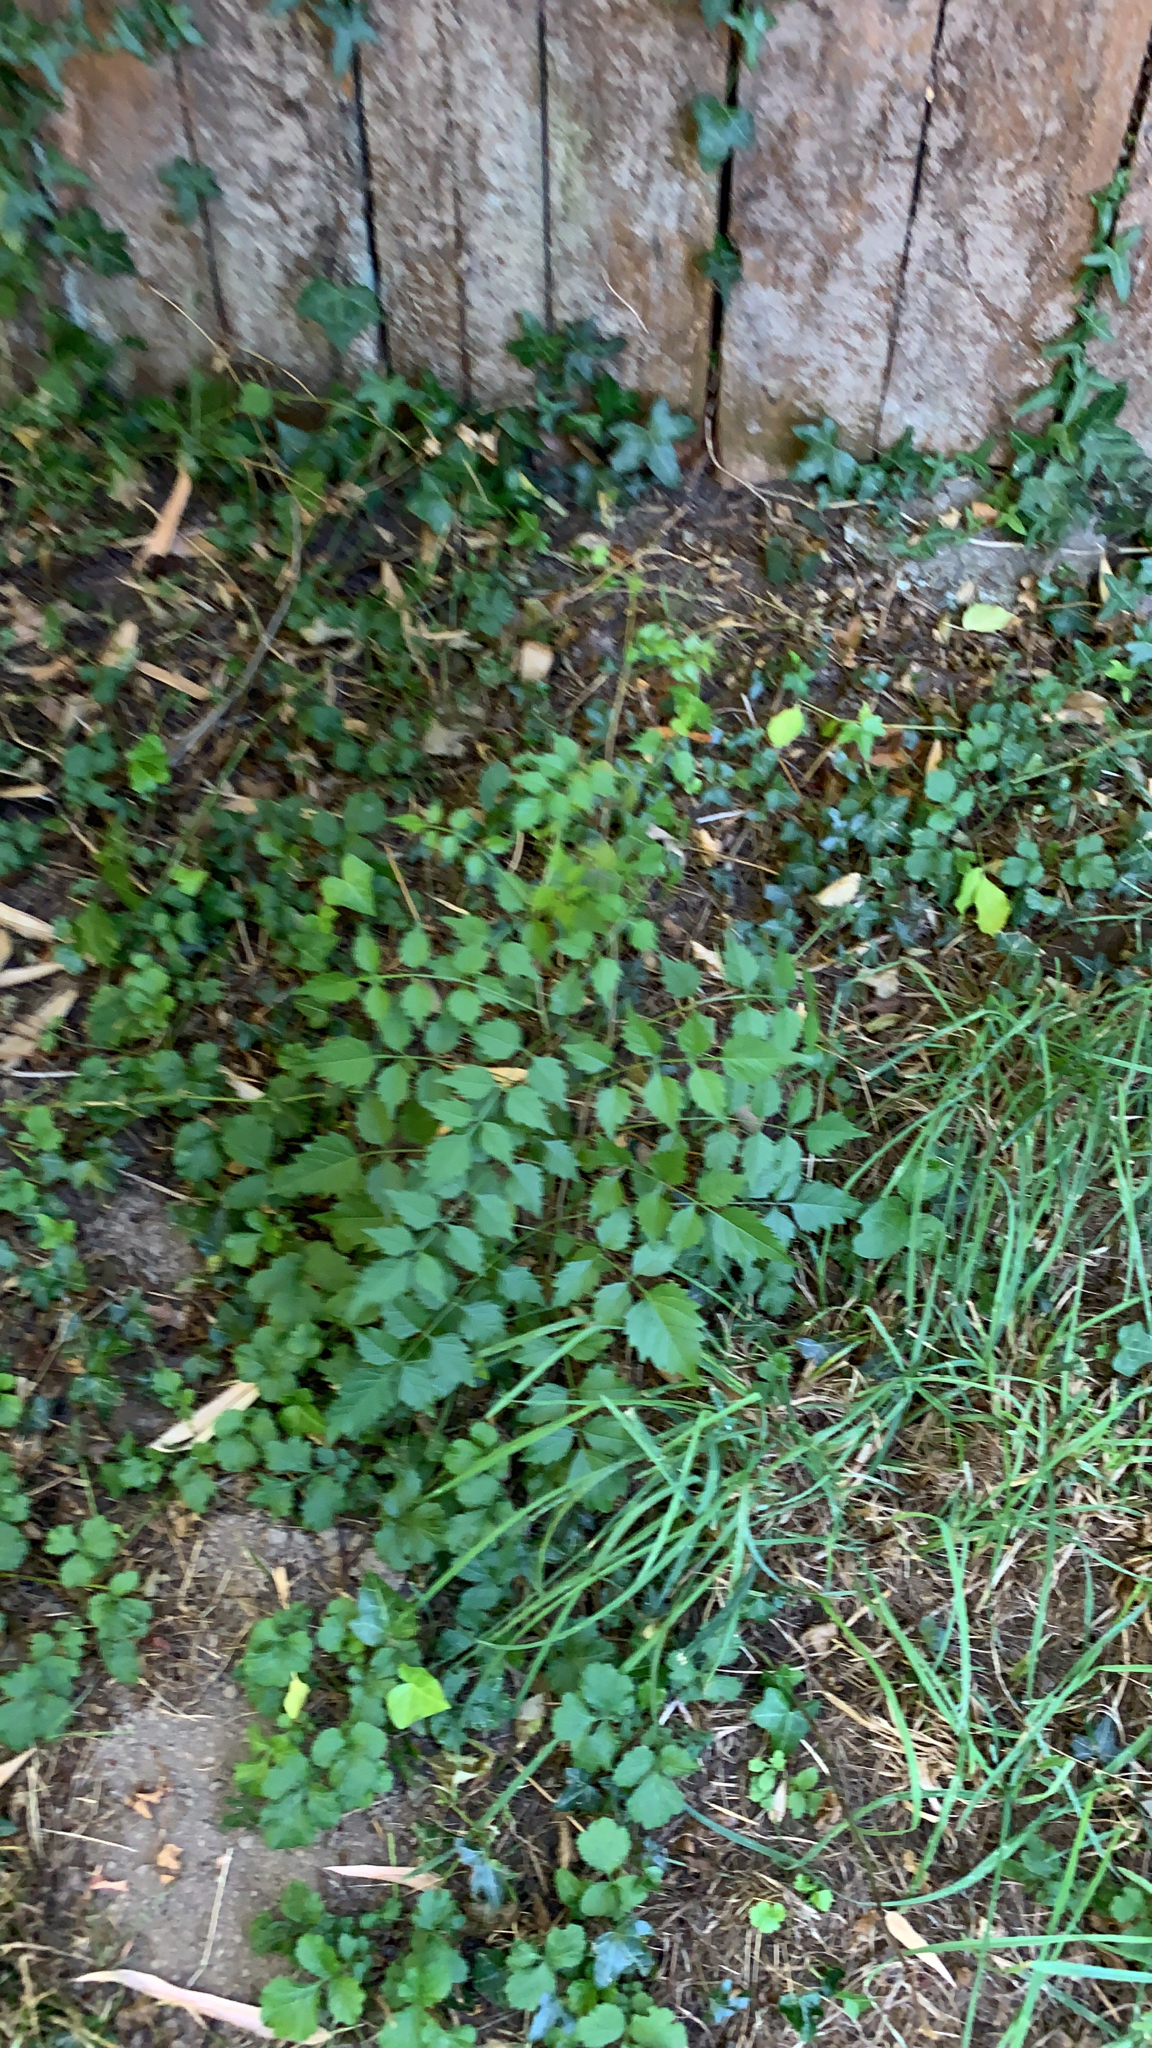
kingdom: Plantae
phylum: Tracheophyta
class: Magnoliopsida
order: Lamiales
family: Bignoniaceae
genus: Campsis
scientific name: Campsis radicans
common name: Trumpet-creeper
